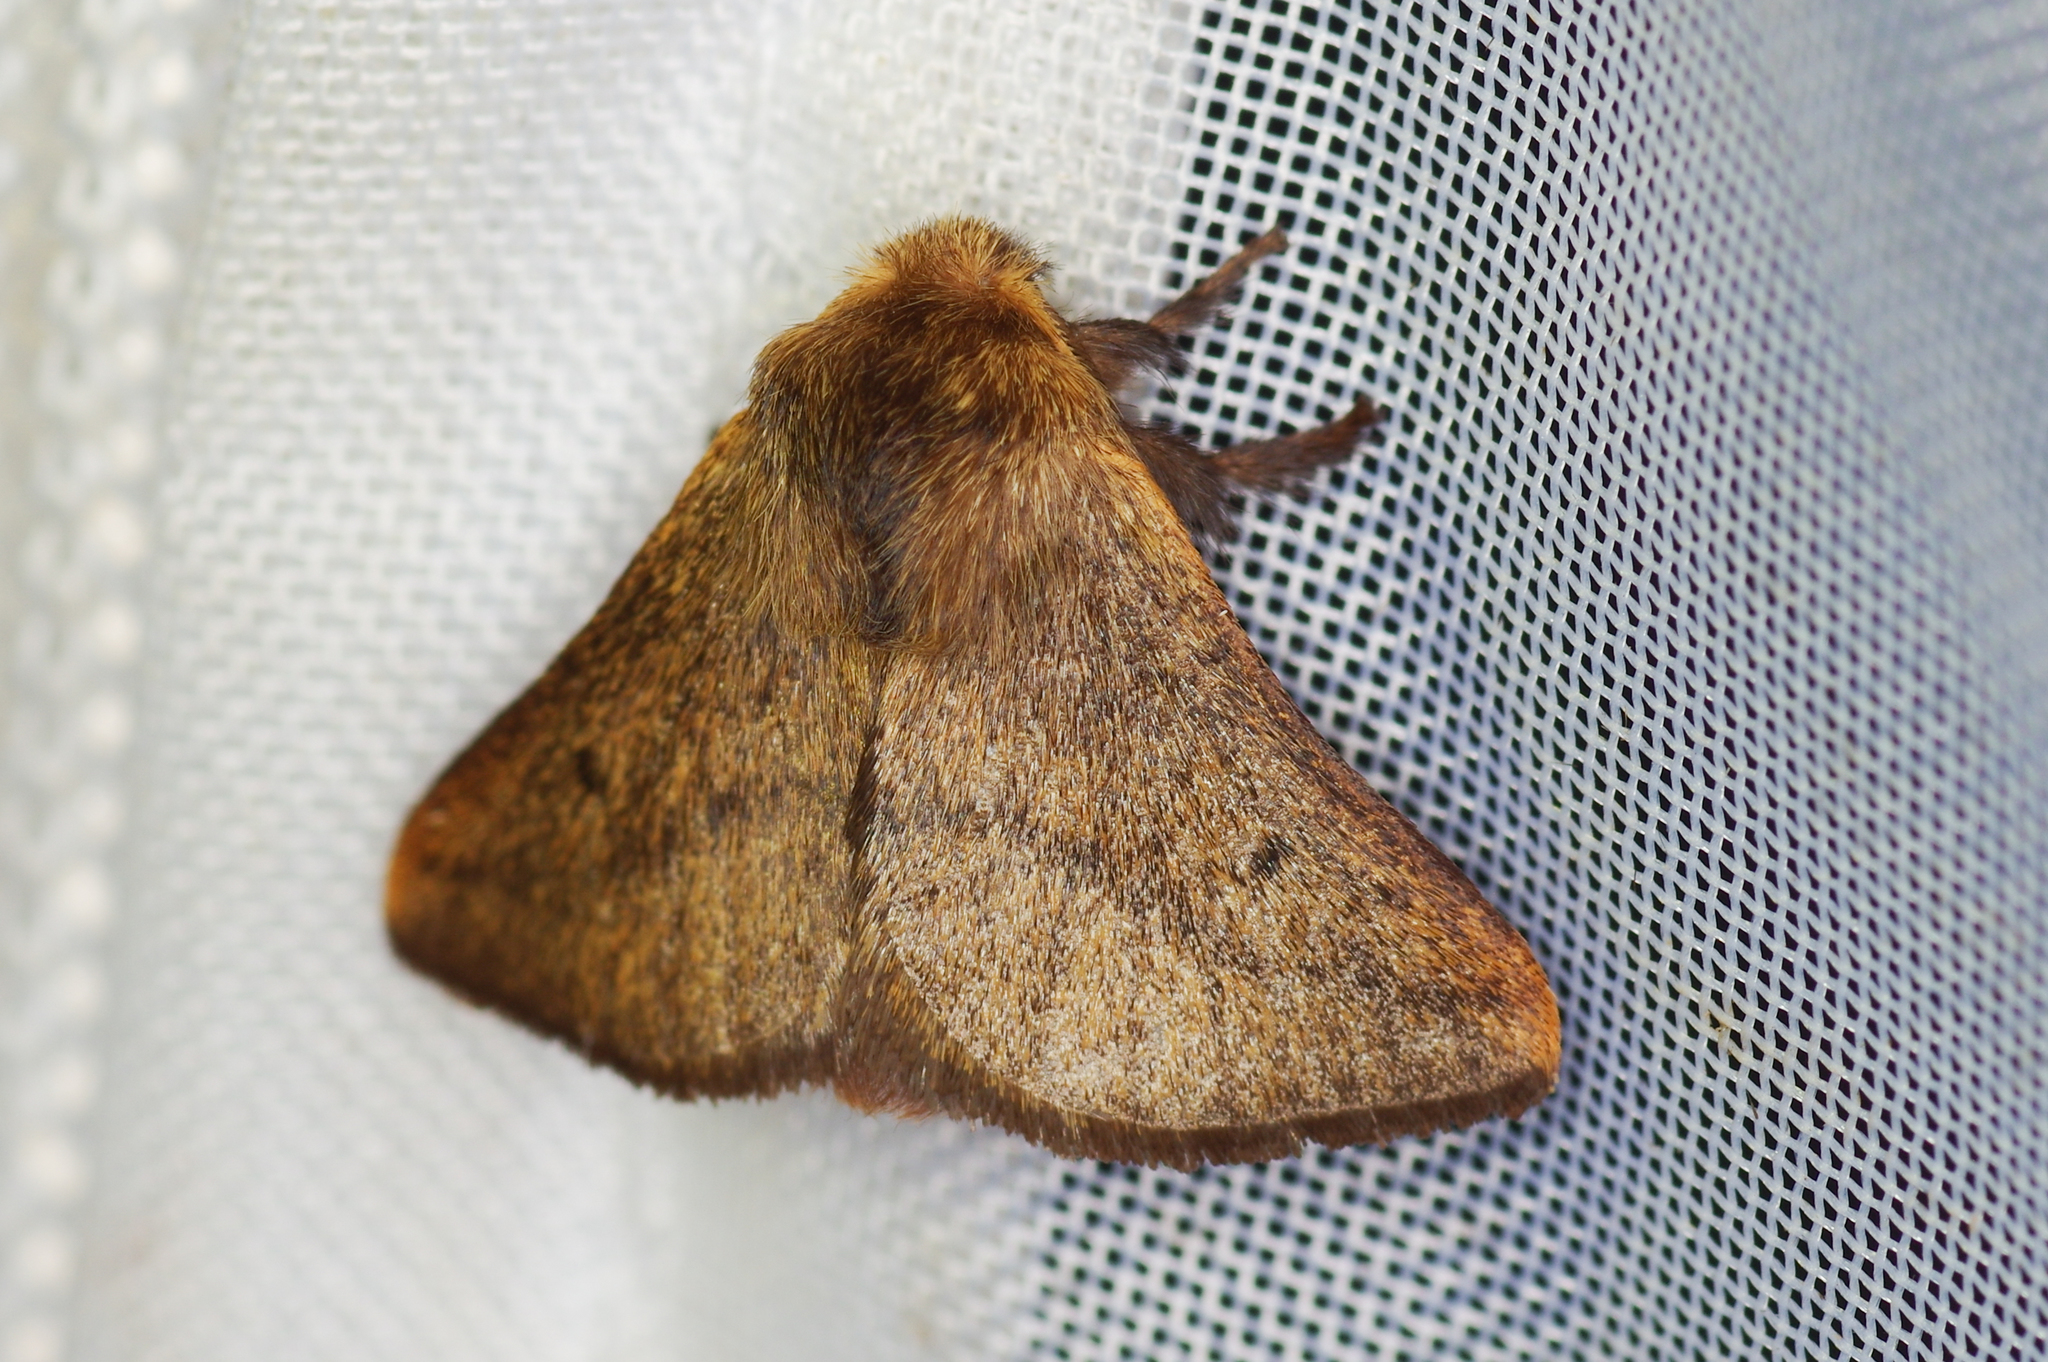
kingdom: Animalia
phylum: Arthropoda
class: Insecta
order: Lepidoptera
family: Limacodidae
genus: Miresa
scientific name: Miresa obscurimargo
